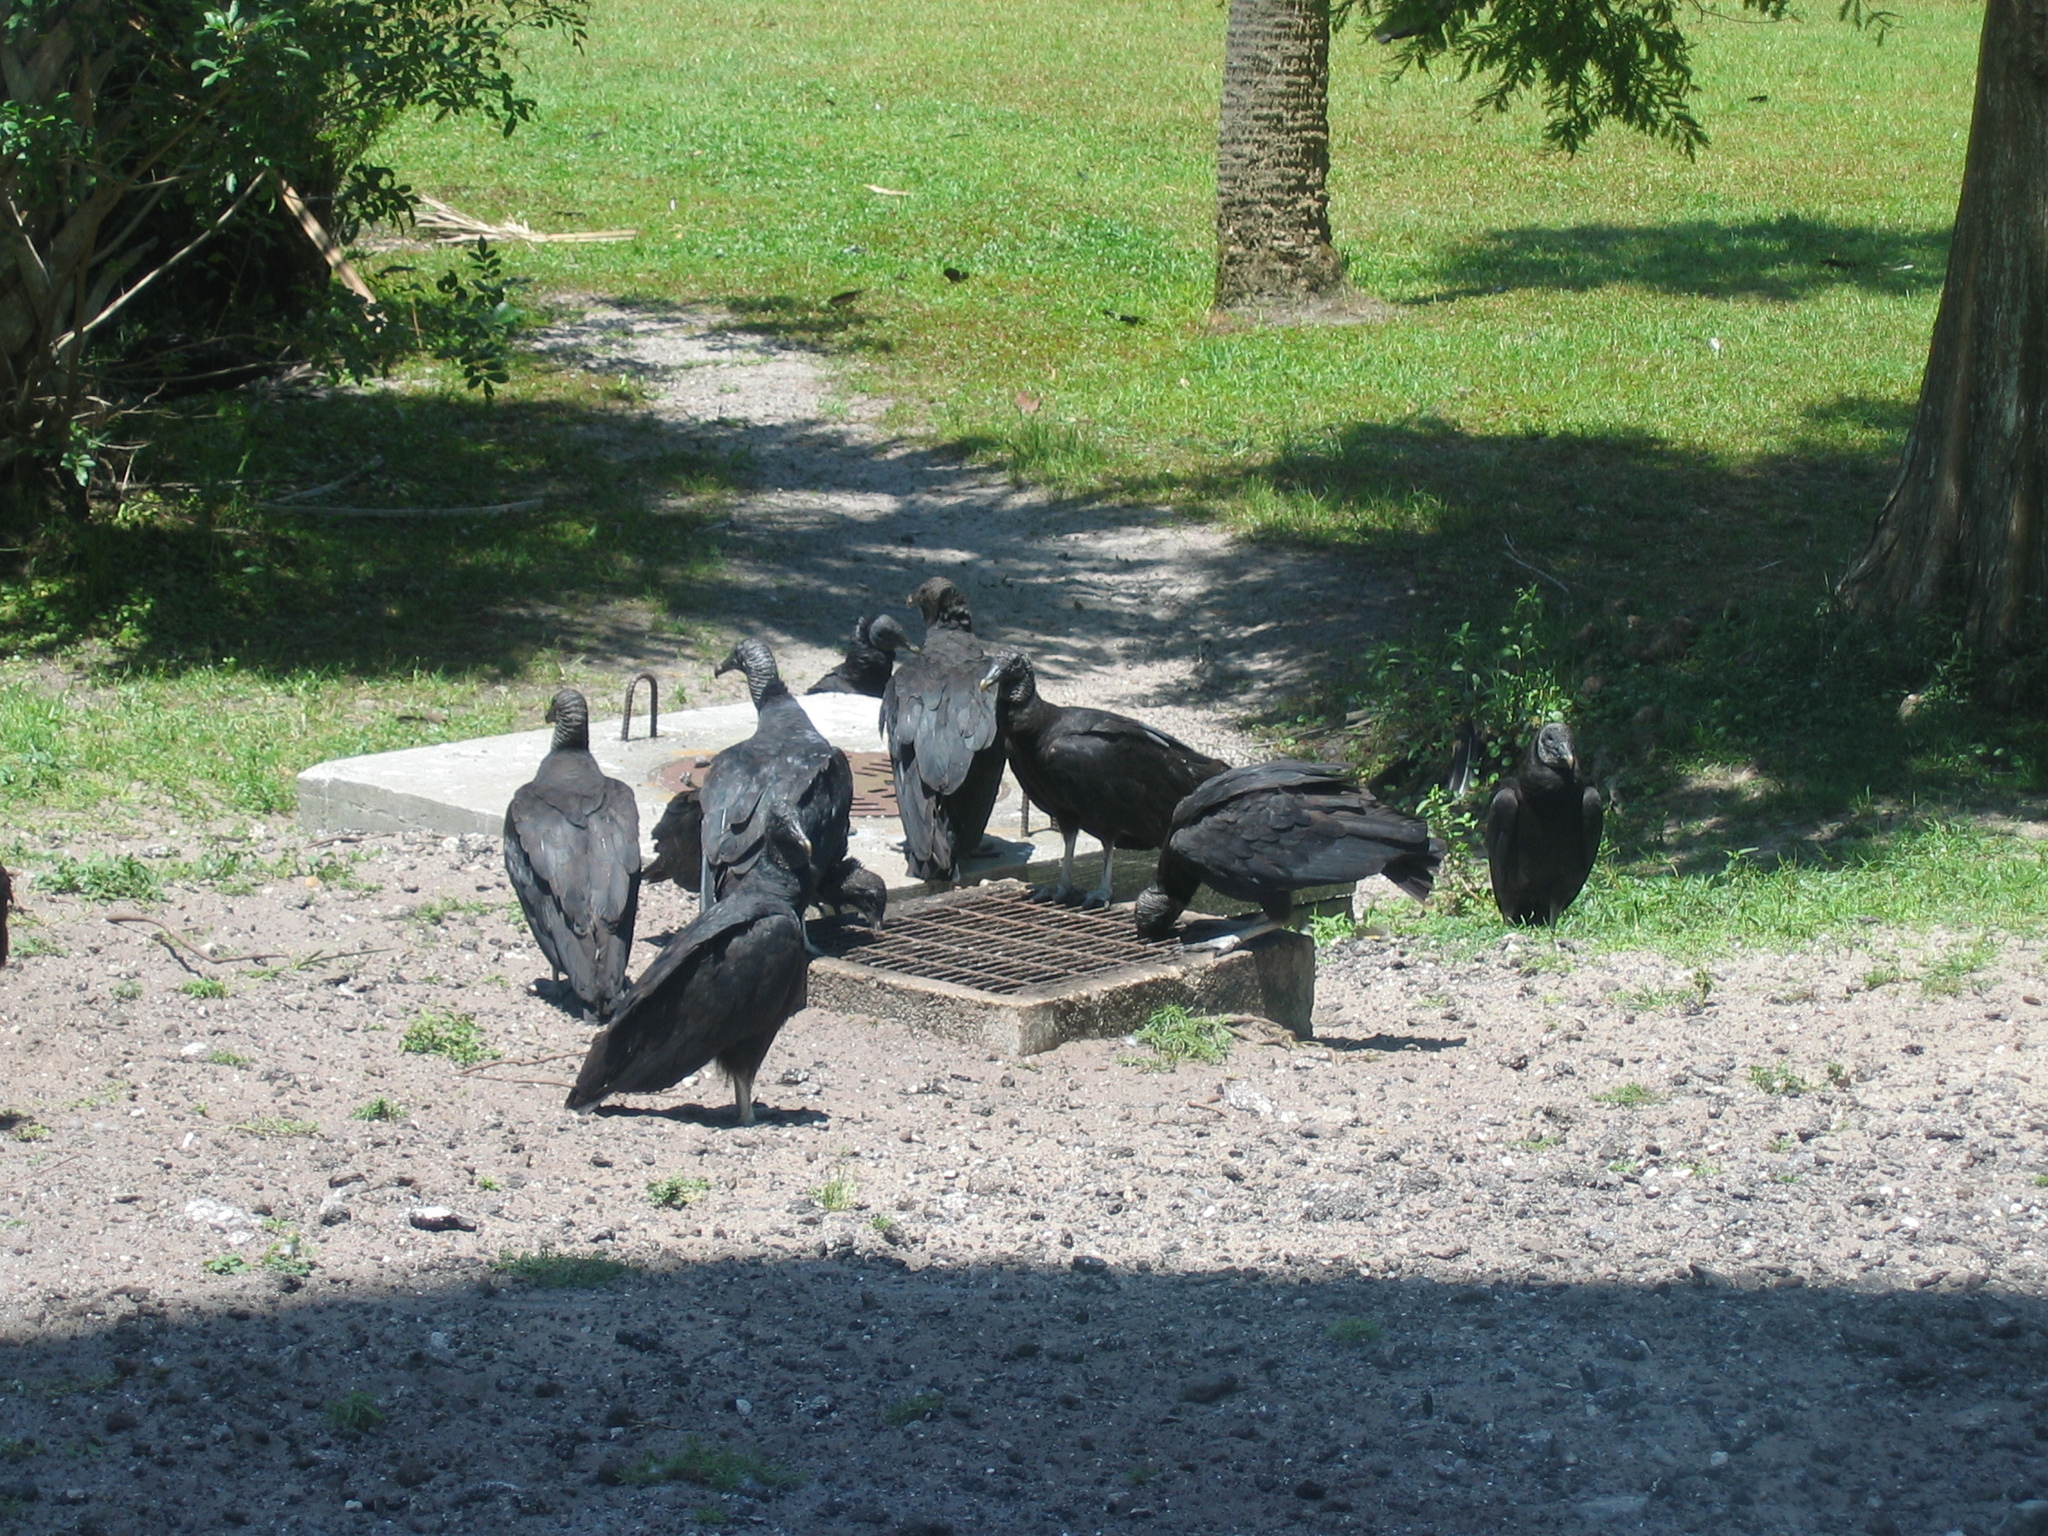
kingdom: Animalia
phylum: Chordata
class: Aves
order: Accipitriformes
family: Cathartidae
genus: Coragyps
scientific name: Coragyps atratus
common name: Black vulture
